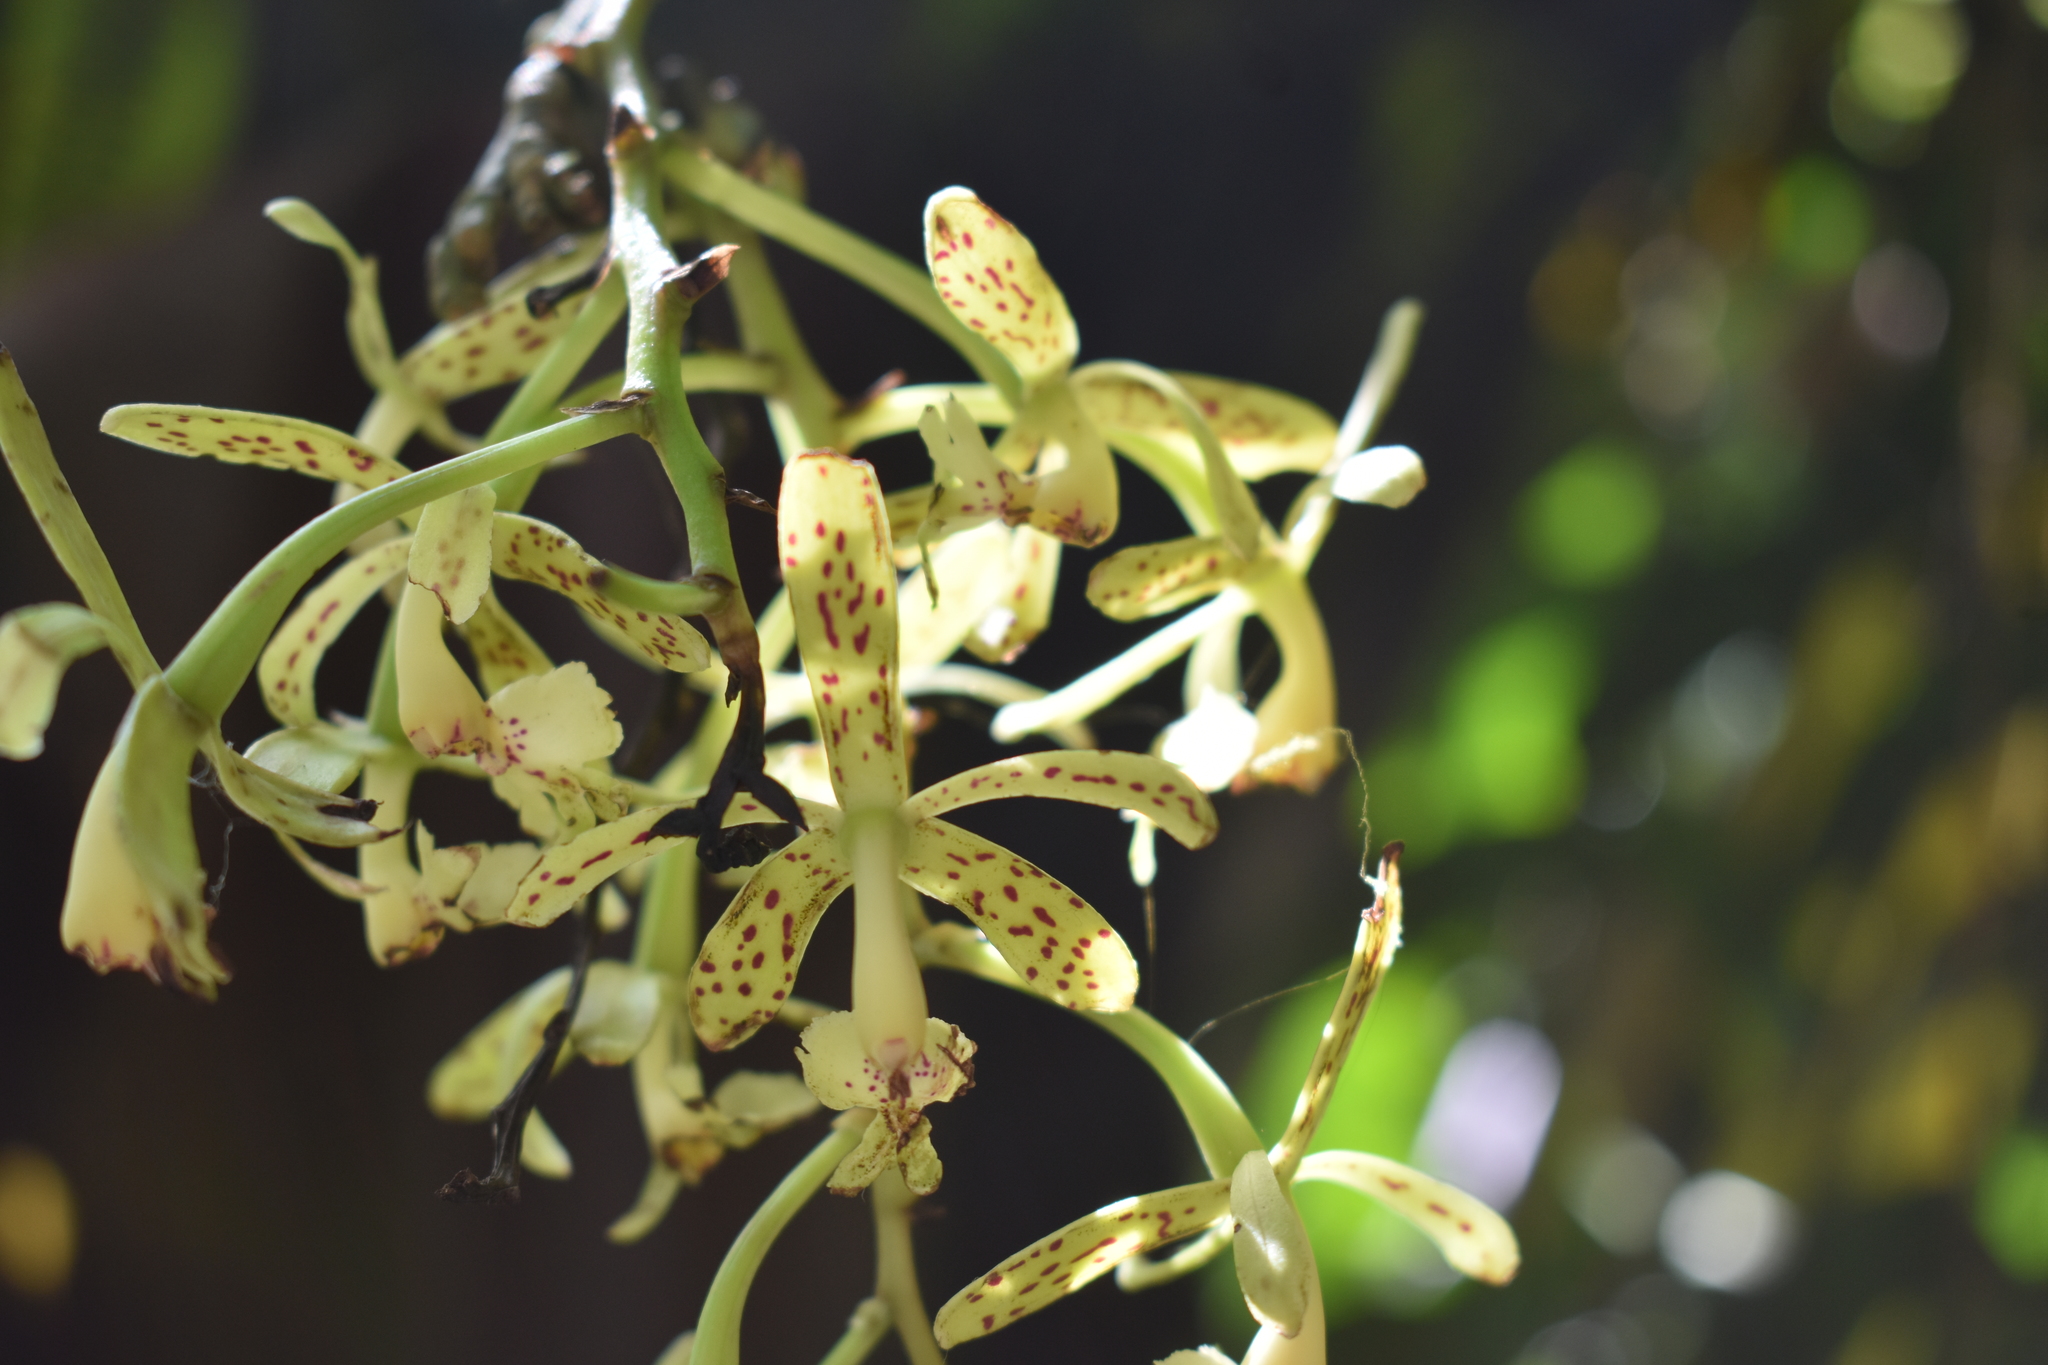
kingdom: Plantae
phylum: Tracheophyta
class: Liliopsida
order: Asparagales
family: Orchidaceae
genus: Epidendrum
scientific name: Epidendrum cristatum
